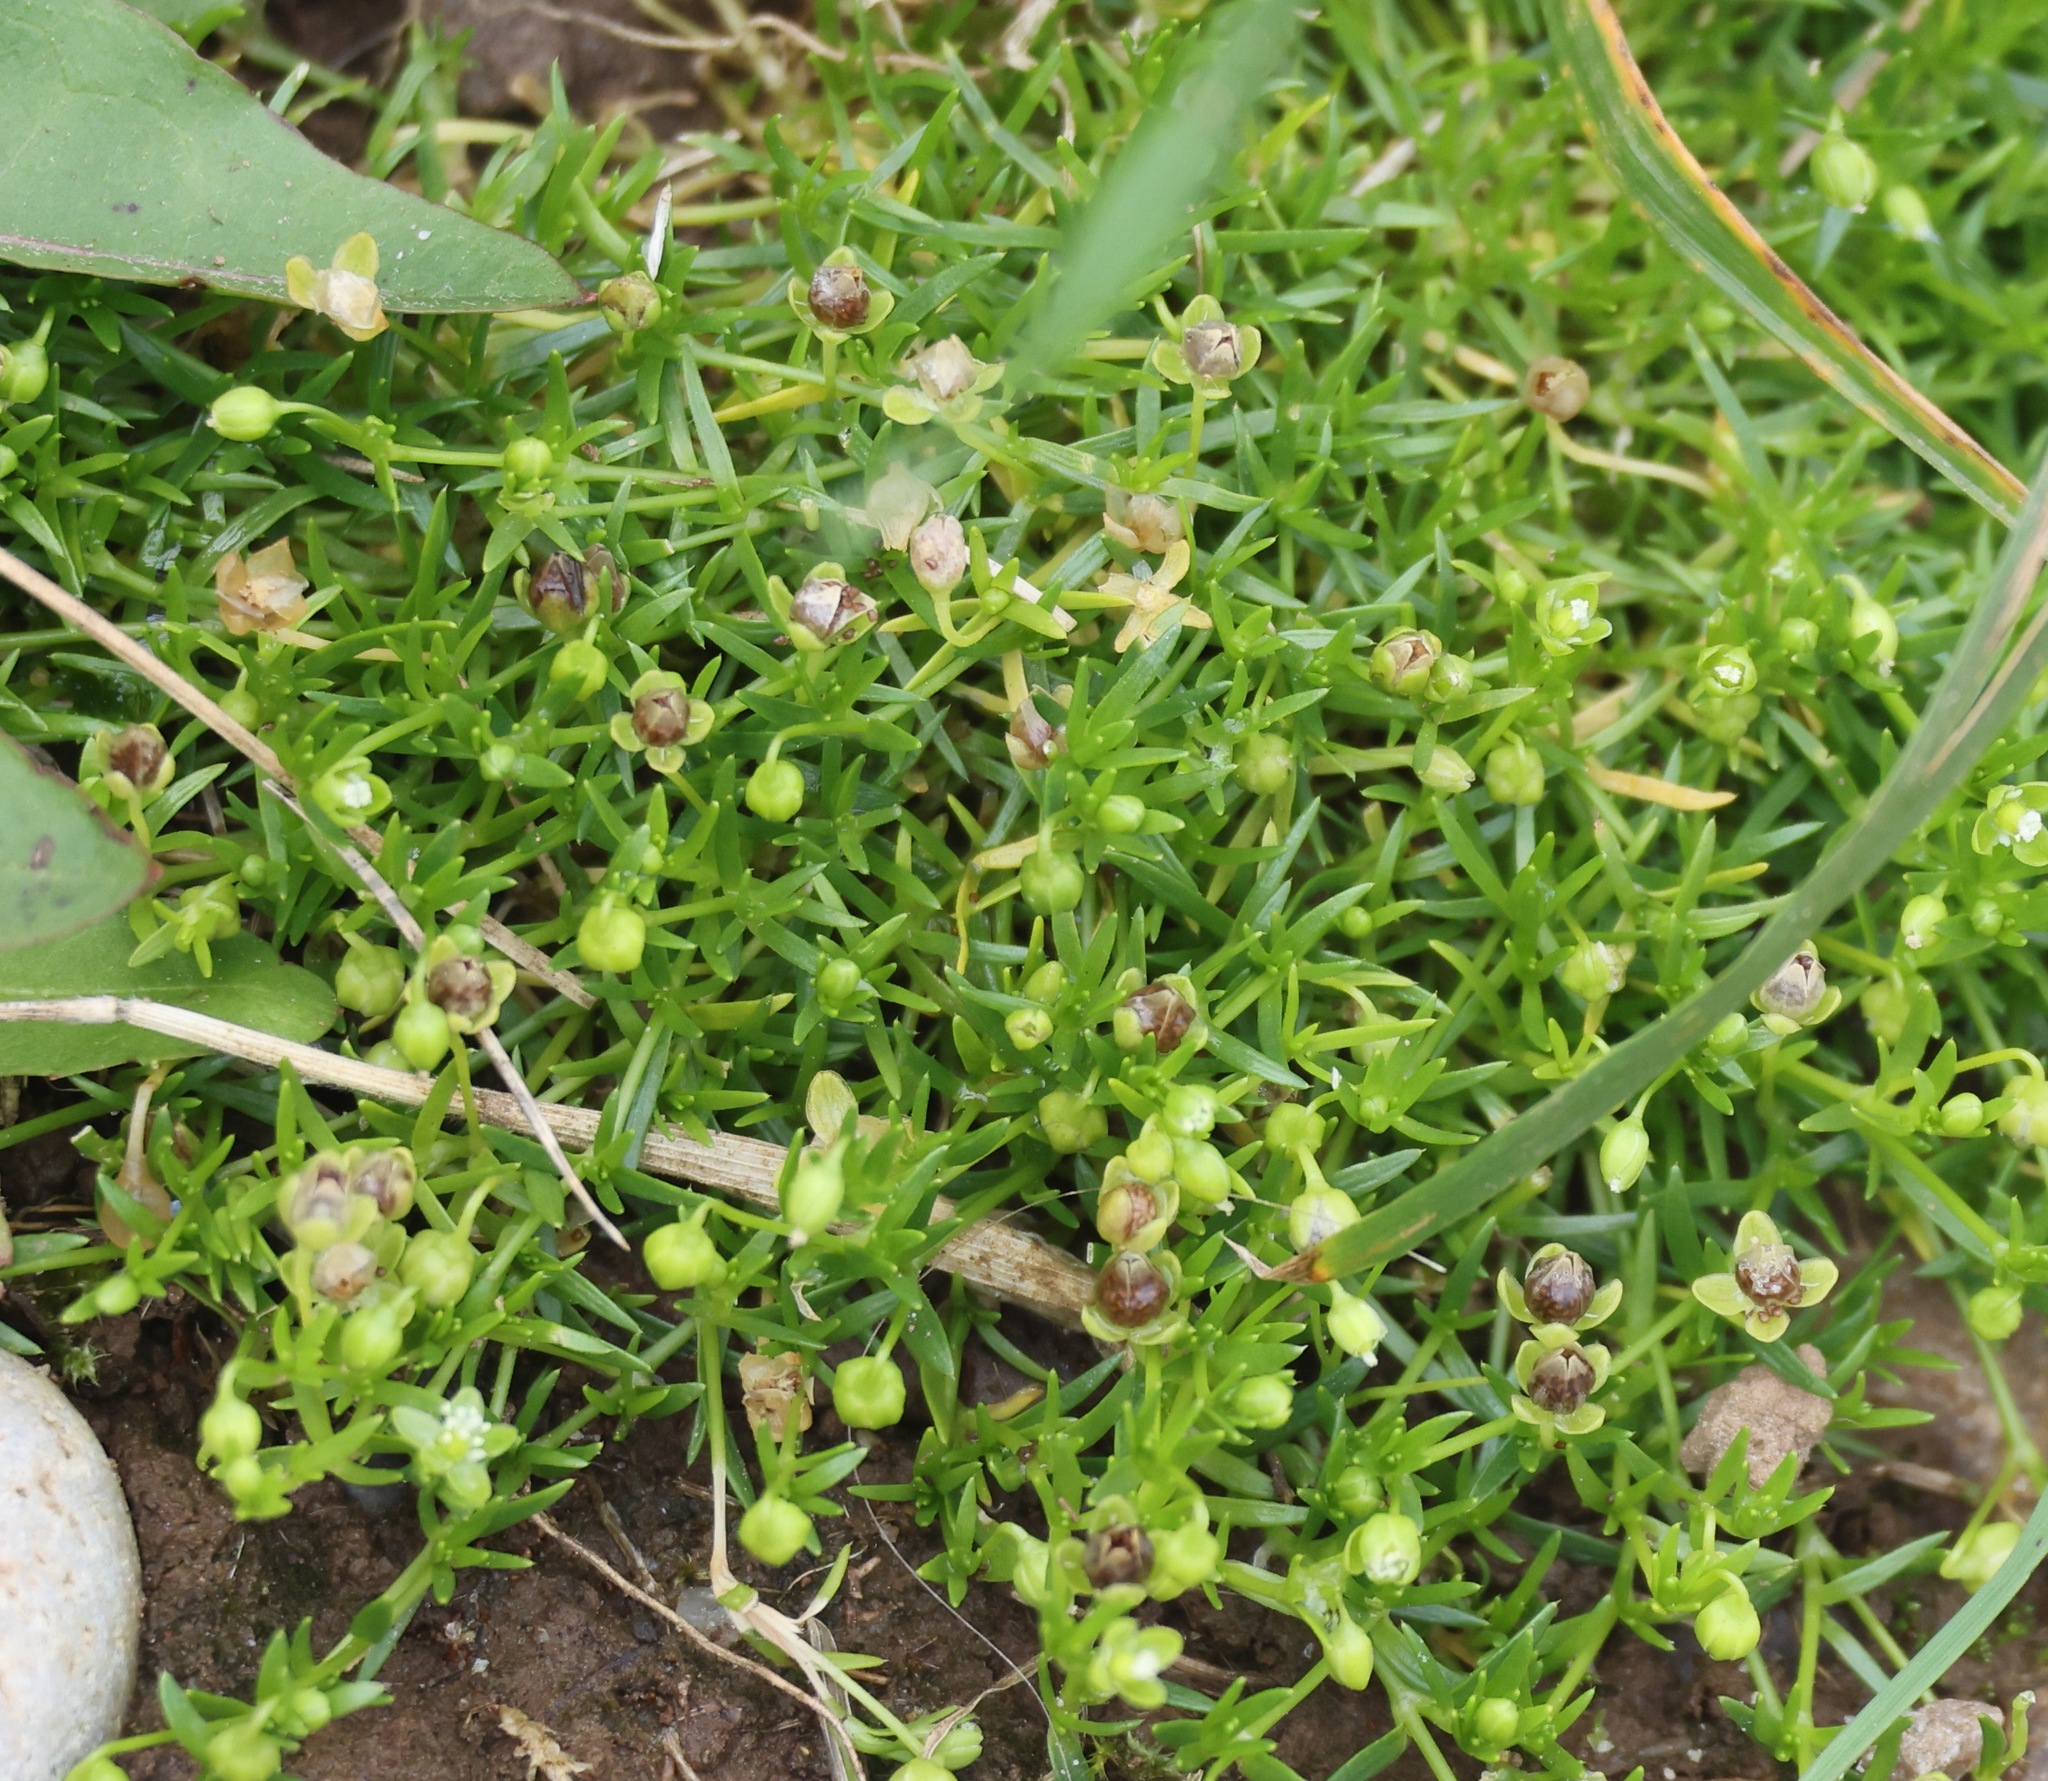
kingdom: Plantae
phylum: Tracheophyta
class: Magnoliopsida
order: Caryophyllales
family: Caryophyllaceae
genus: Sagina
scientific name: Sagina procumbens
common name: Procumbent pearlwort
